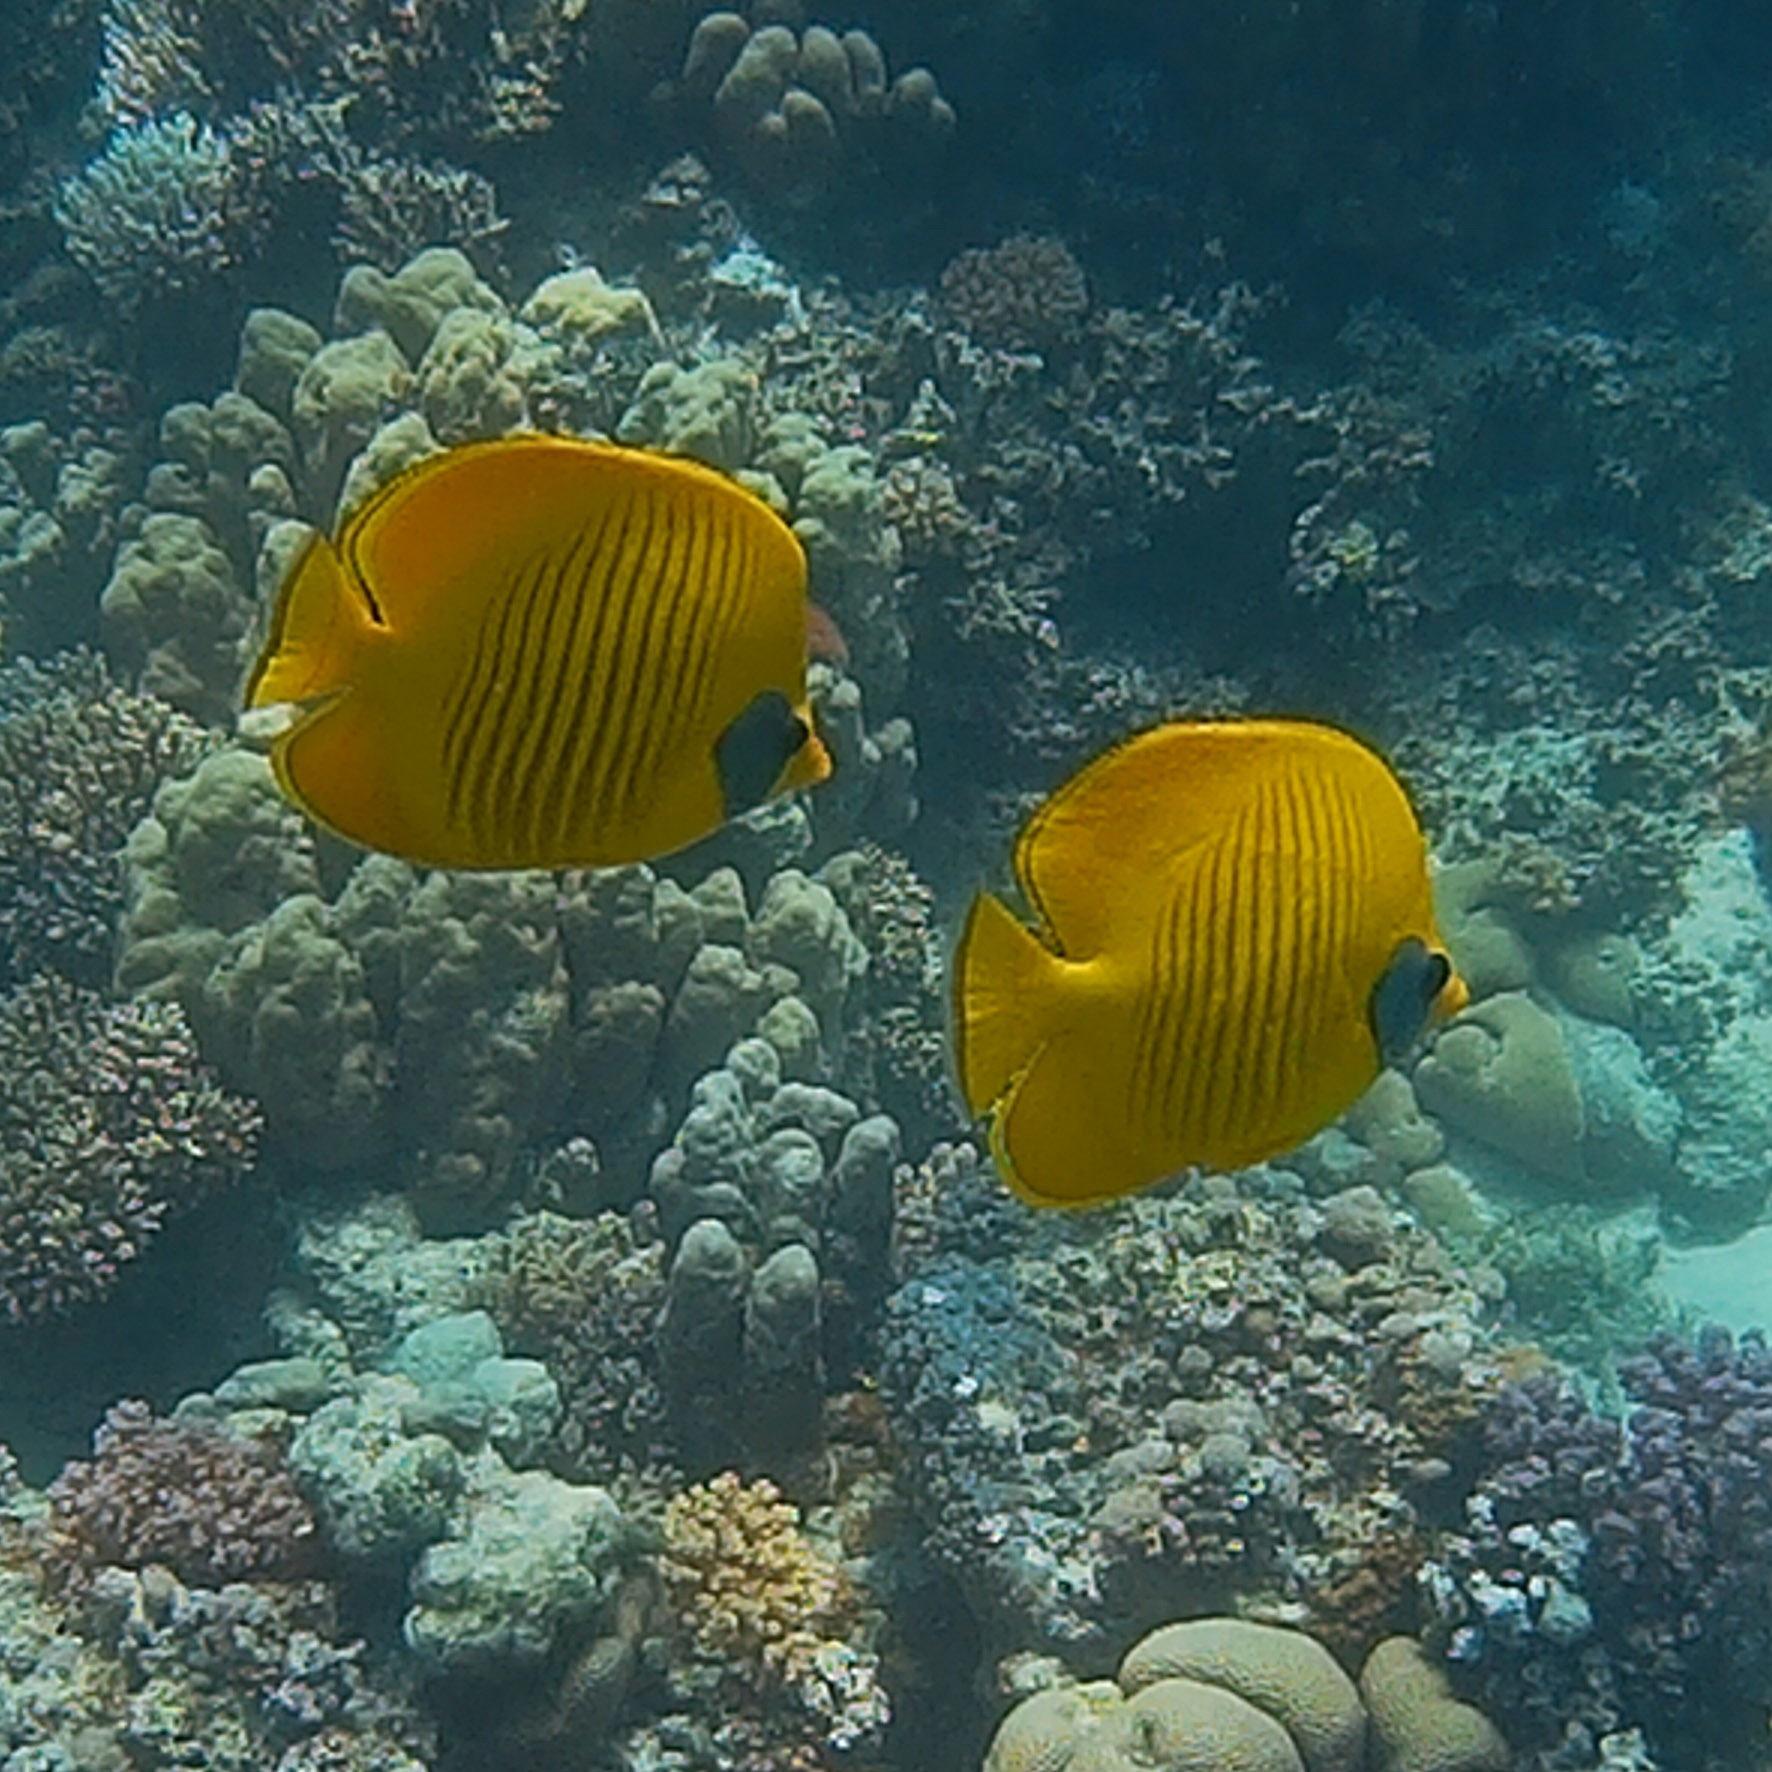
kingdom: Animalia
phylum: Chordata
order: Perciformes
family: Chaetodontidae
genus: Chaetodon
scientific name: Chaetodon semilarvatus
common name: Golden butterflyfish
